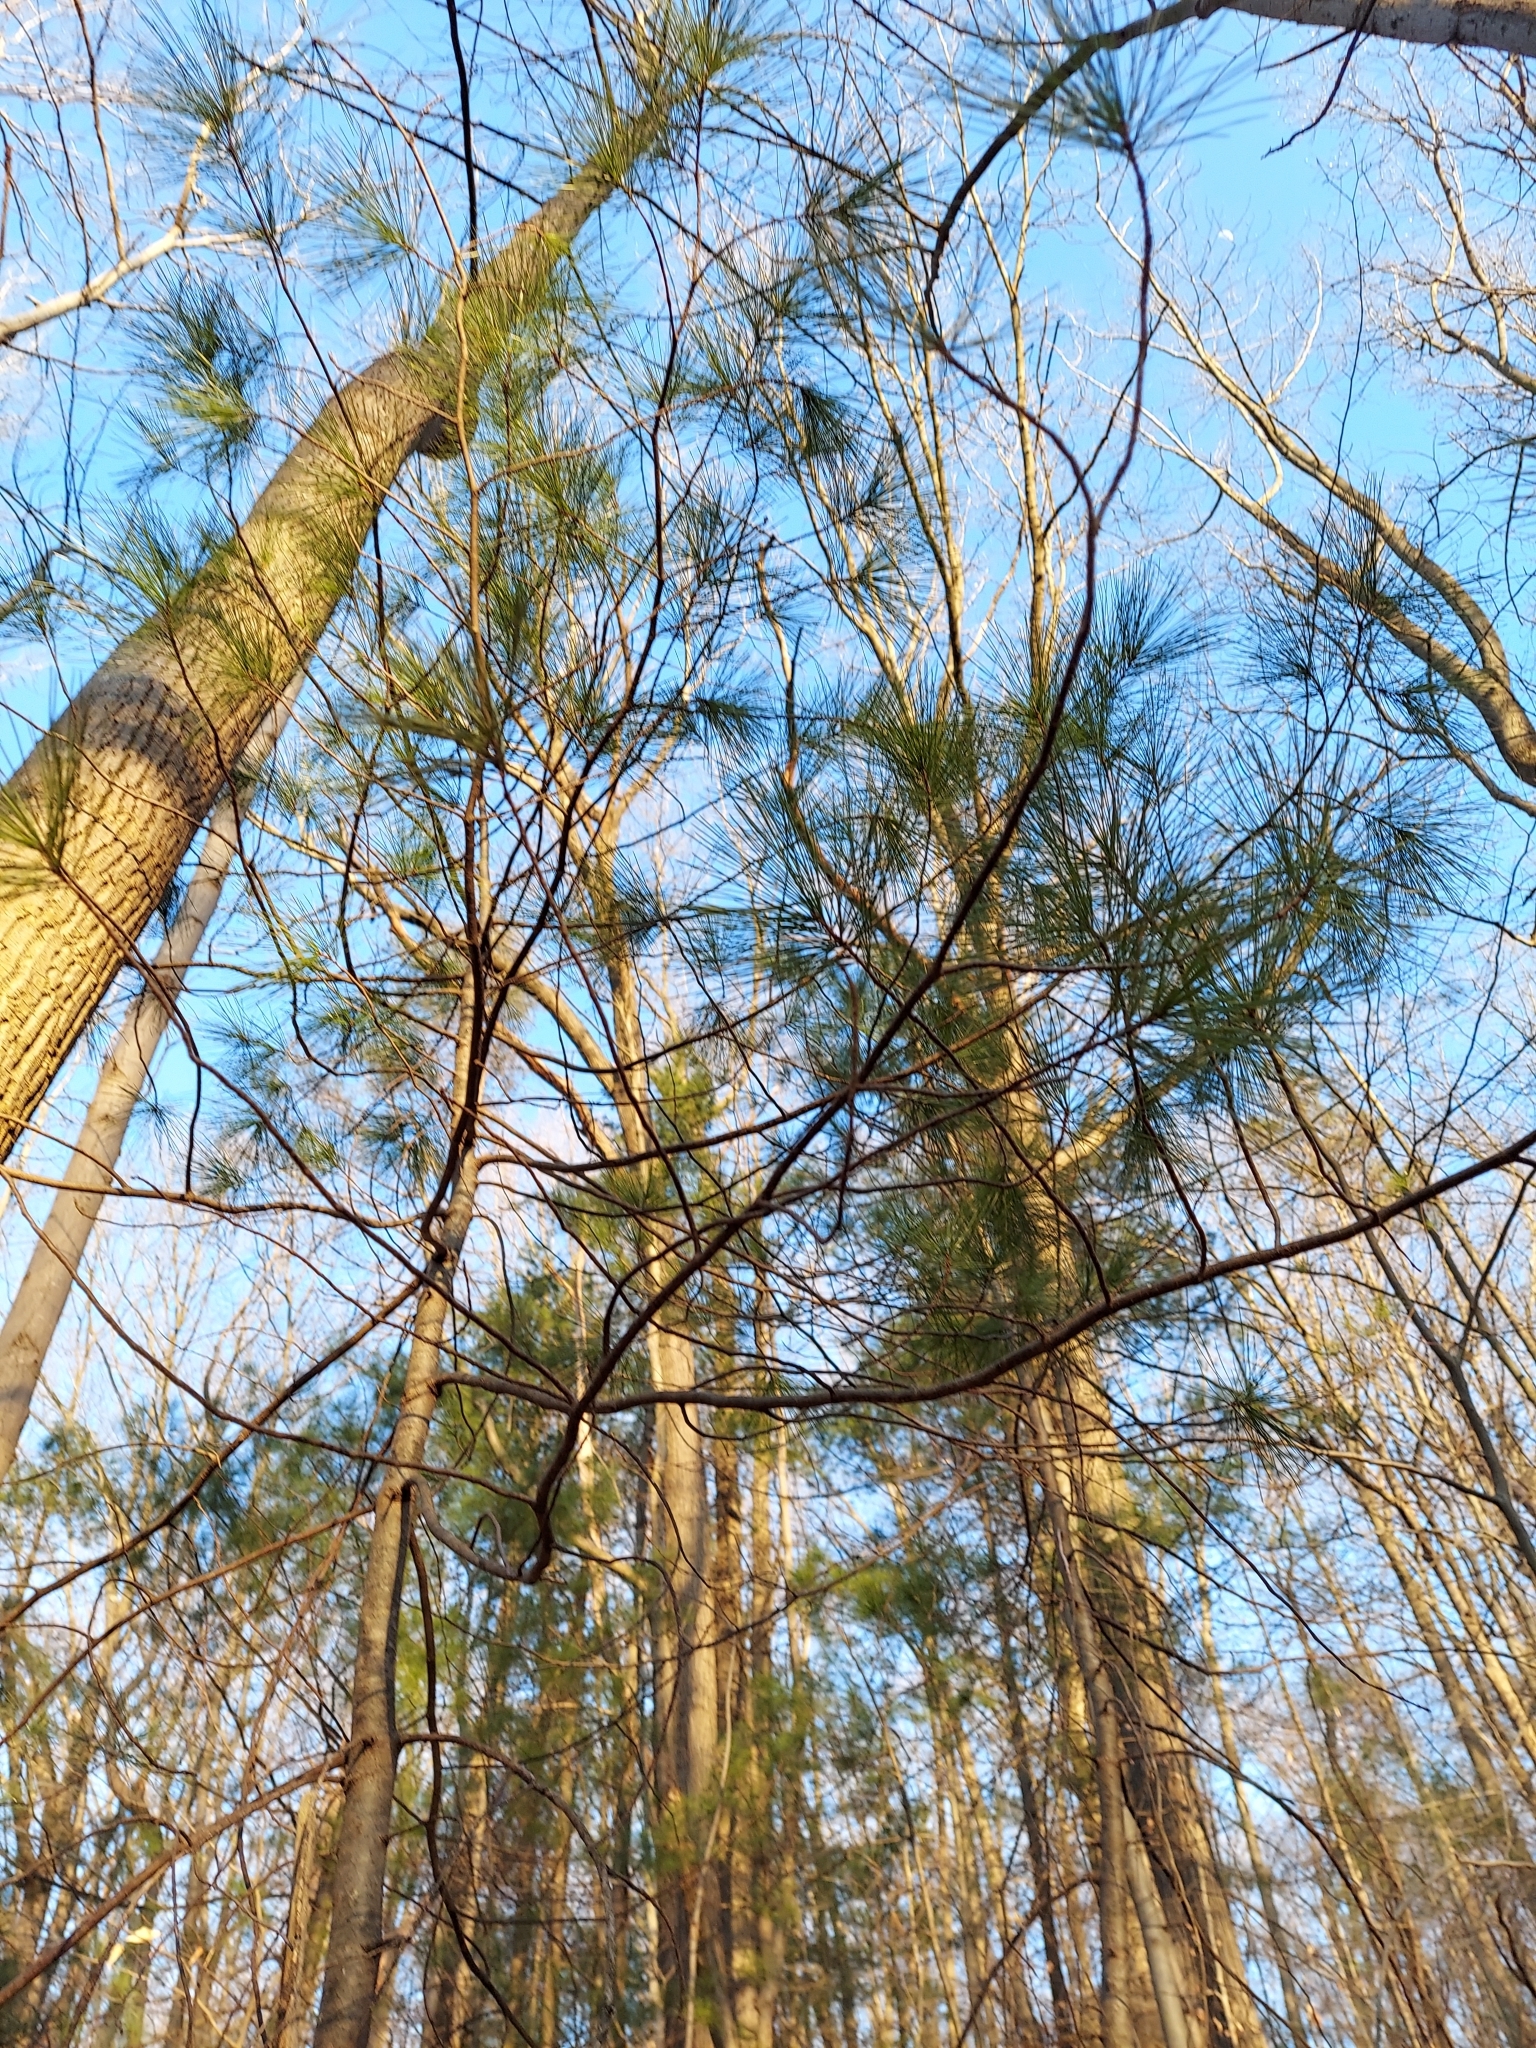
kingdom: Plantae
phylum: Tracheophyta
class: Pinopsida
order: Pinales
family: Pinaceae
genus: Pinus
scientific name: Pinus strobus
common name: Weymouth pine
